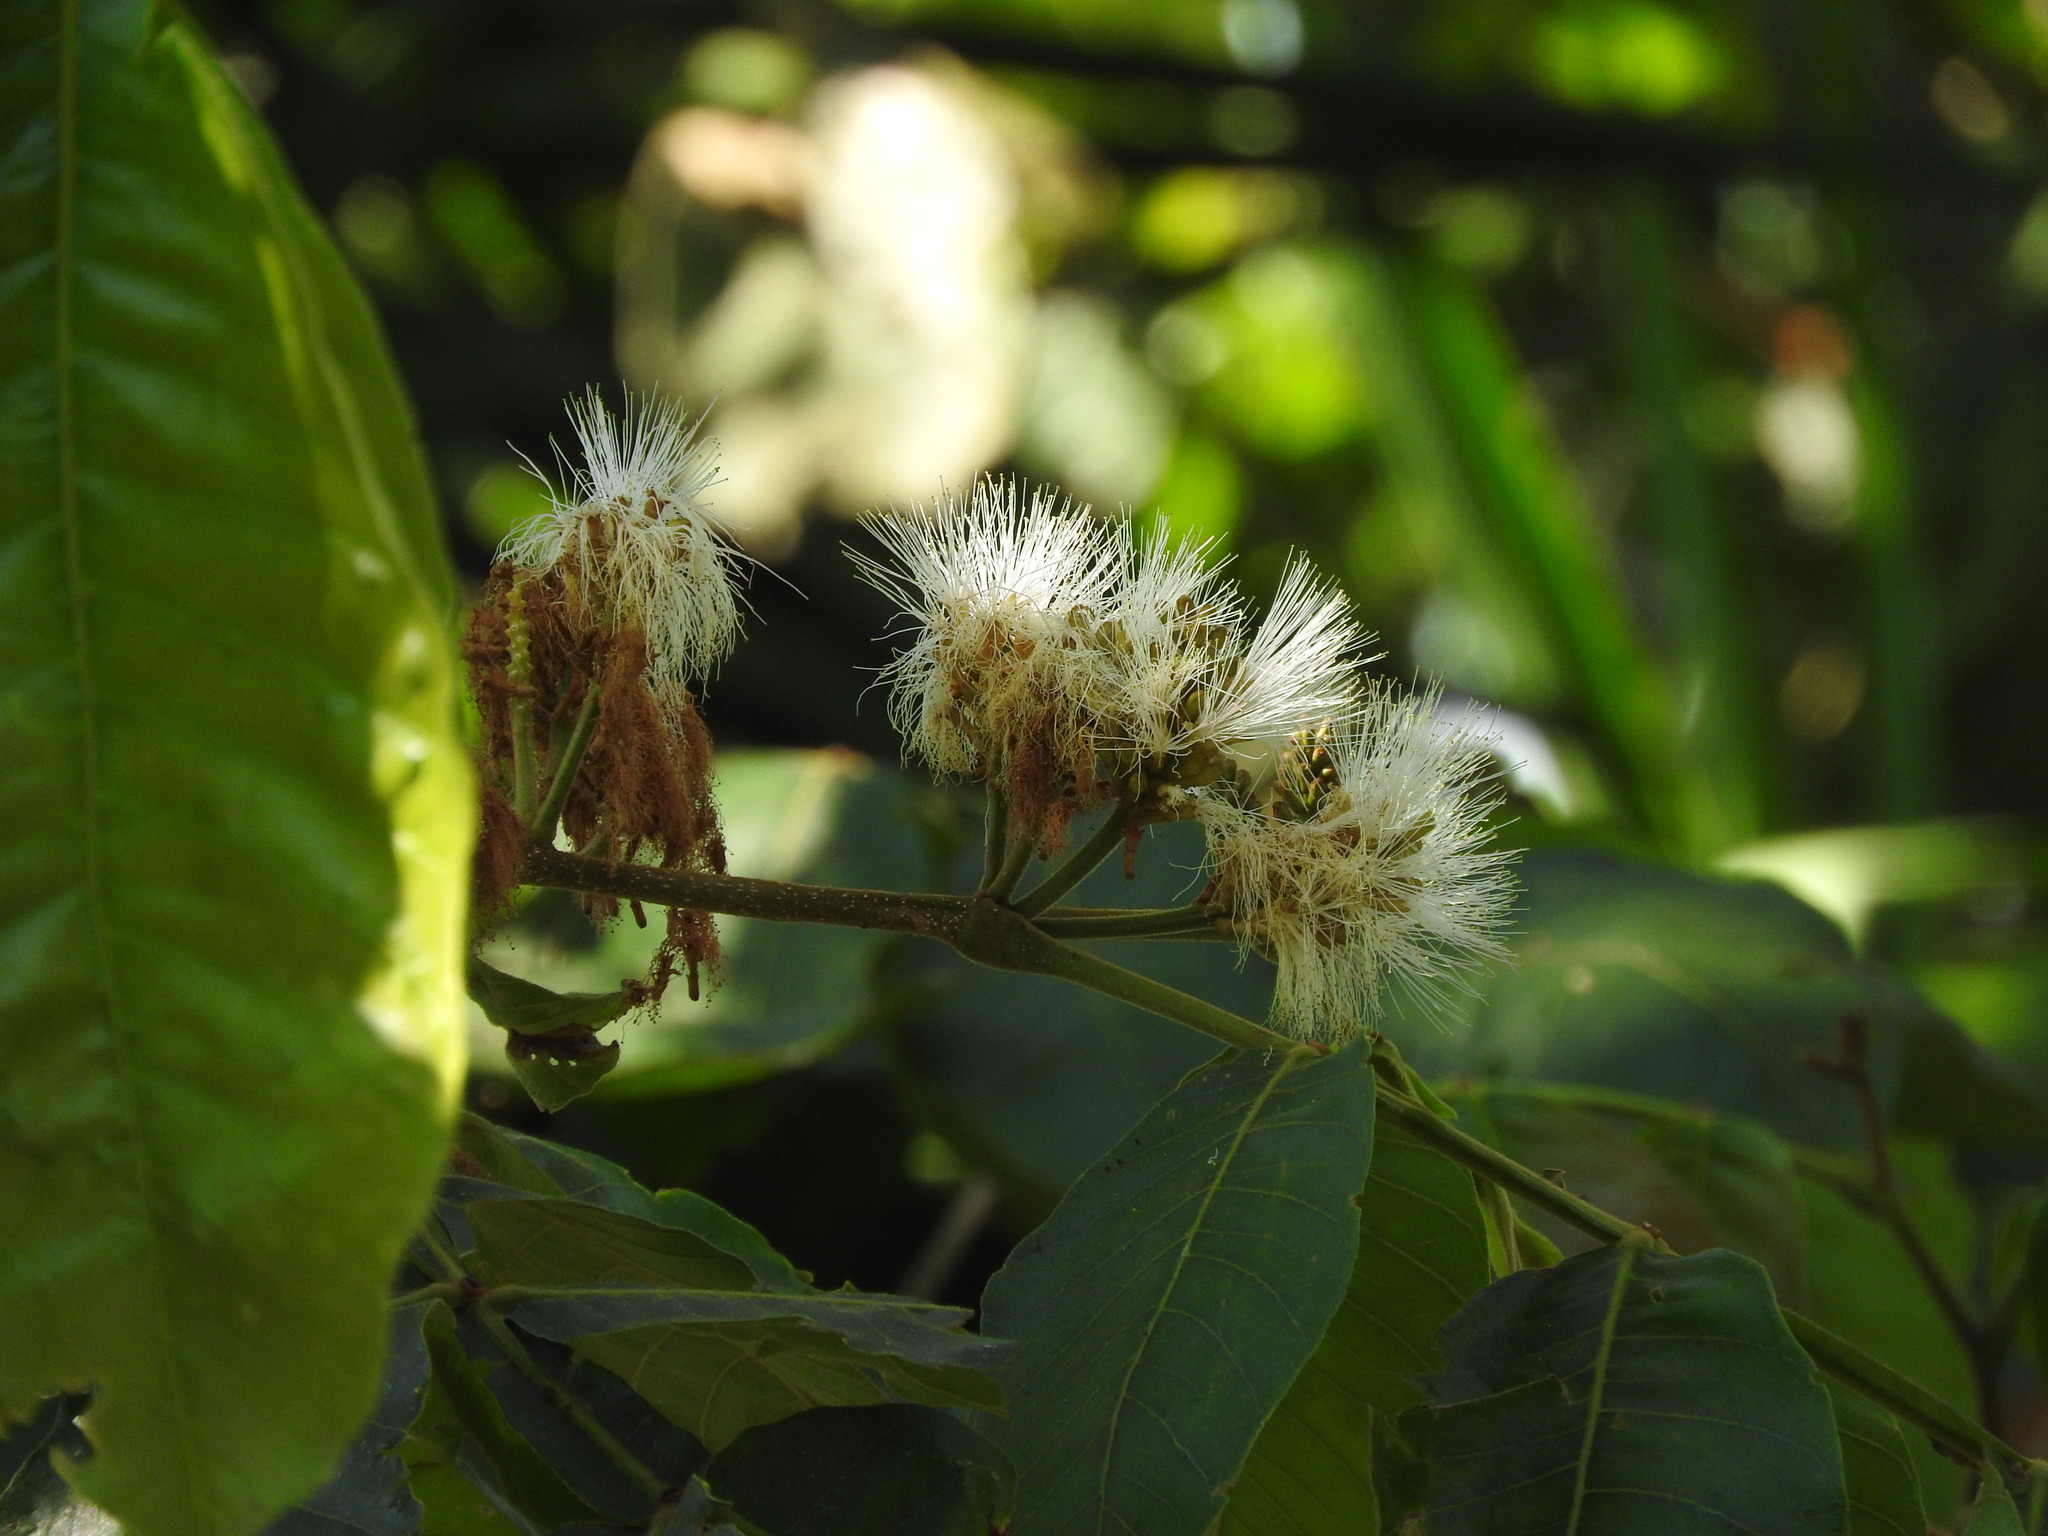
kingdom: Plantae
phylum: Tracheophyta
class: Magnoliopsida
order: Fabales
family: Fabaceae
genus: Inga
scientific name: Inga vera
